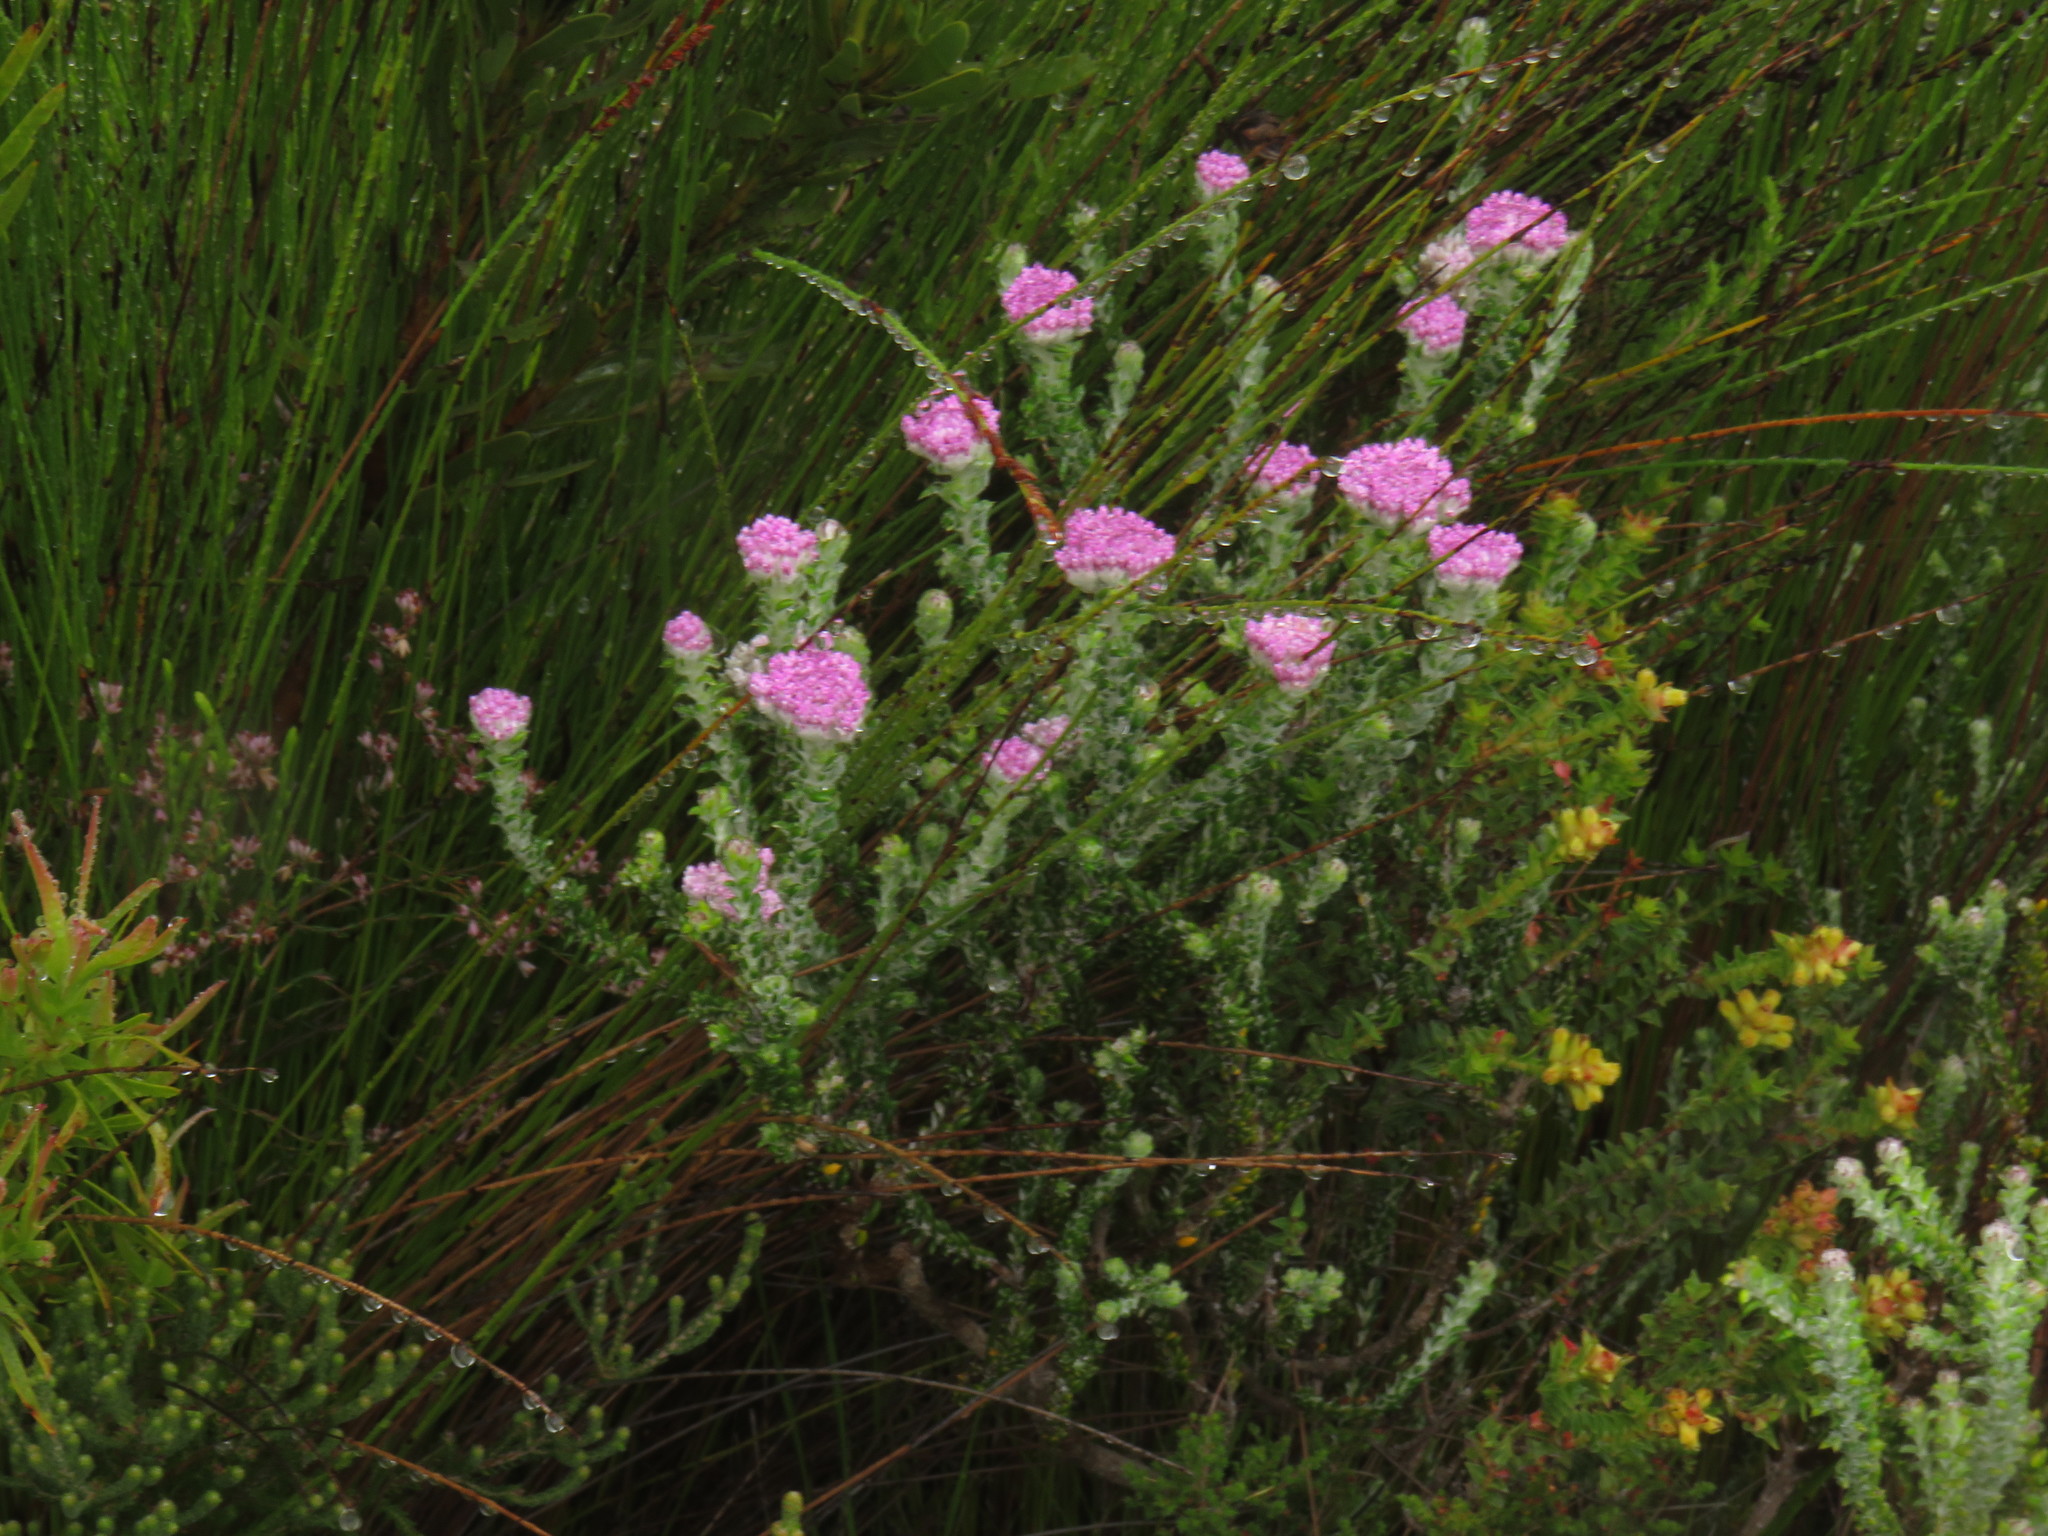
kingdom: Plantae
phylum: Tracheophyta
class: Magnoliopsida
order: Asterales
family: Asteraceae
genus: Metalasia
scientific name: Metalasia cymbifolia
